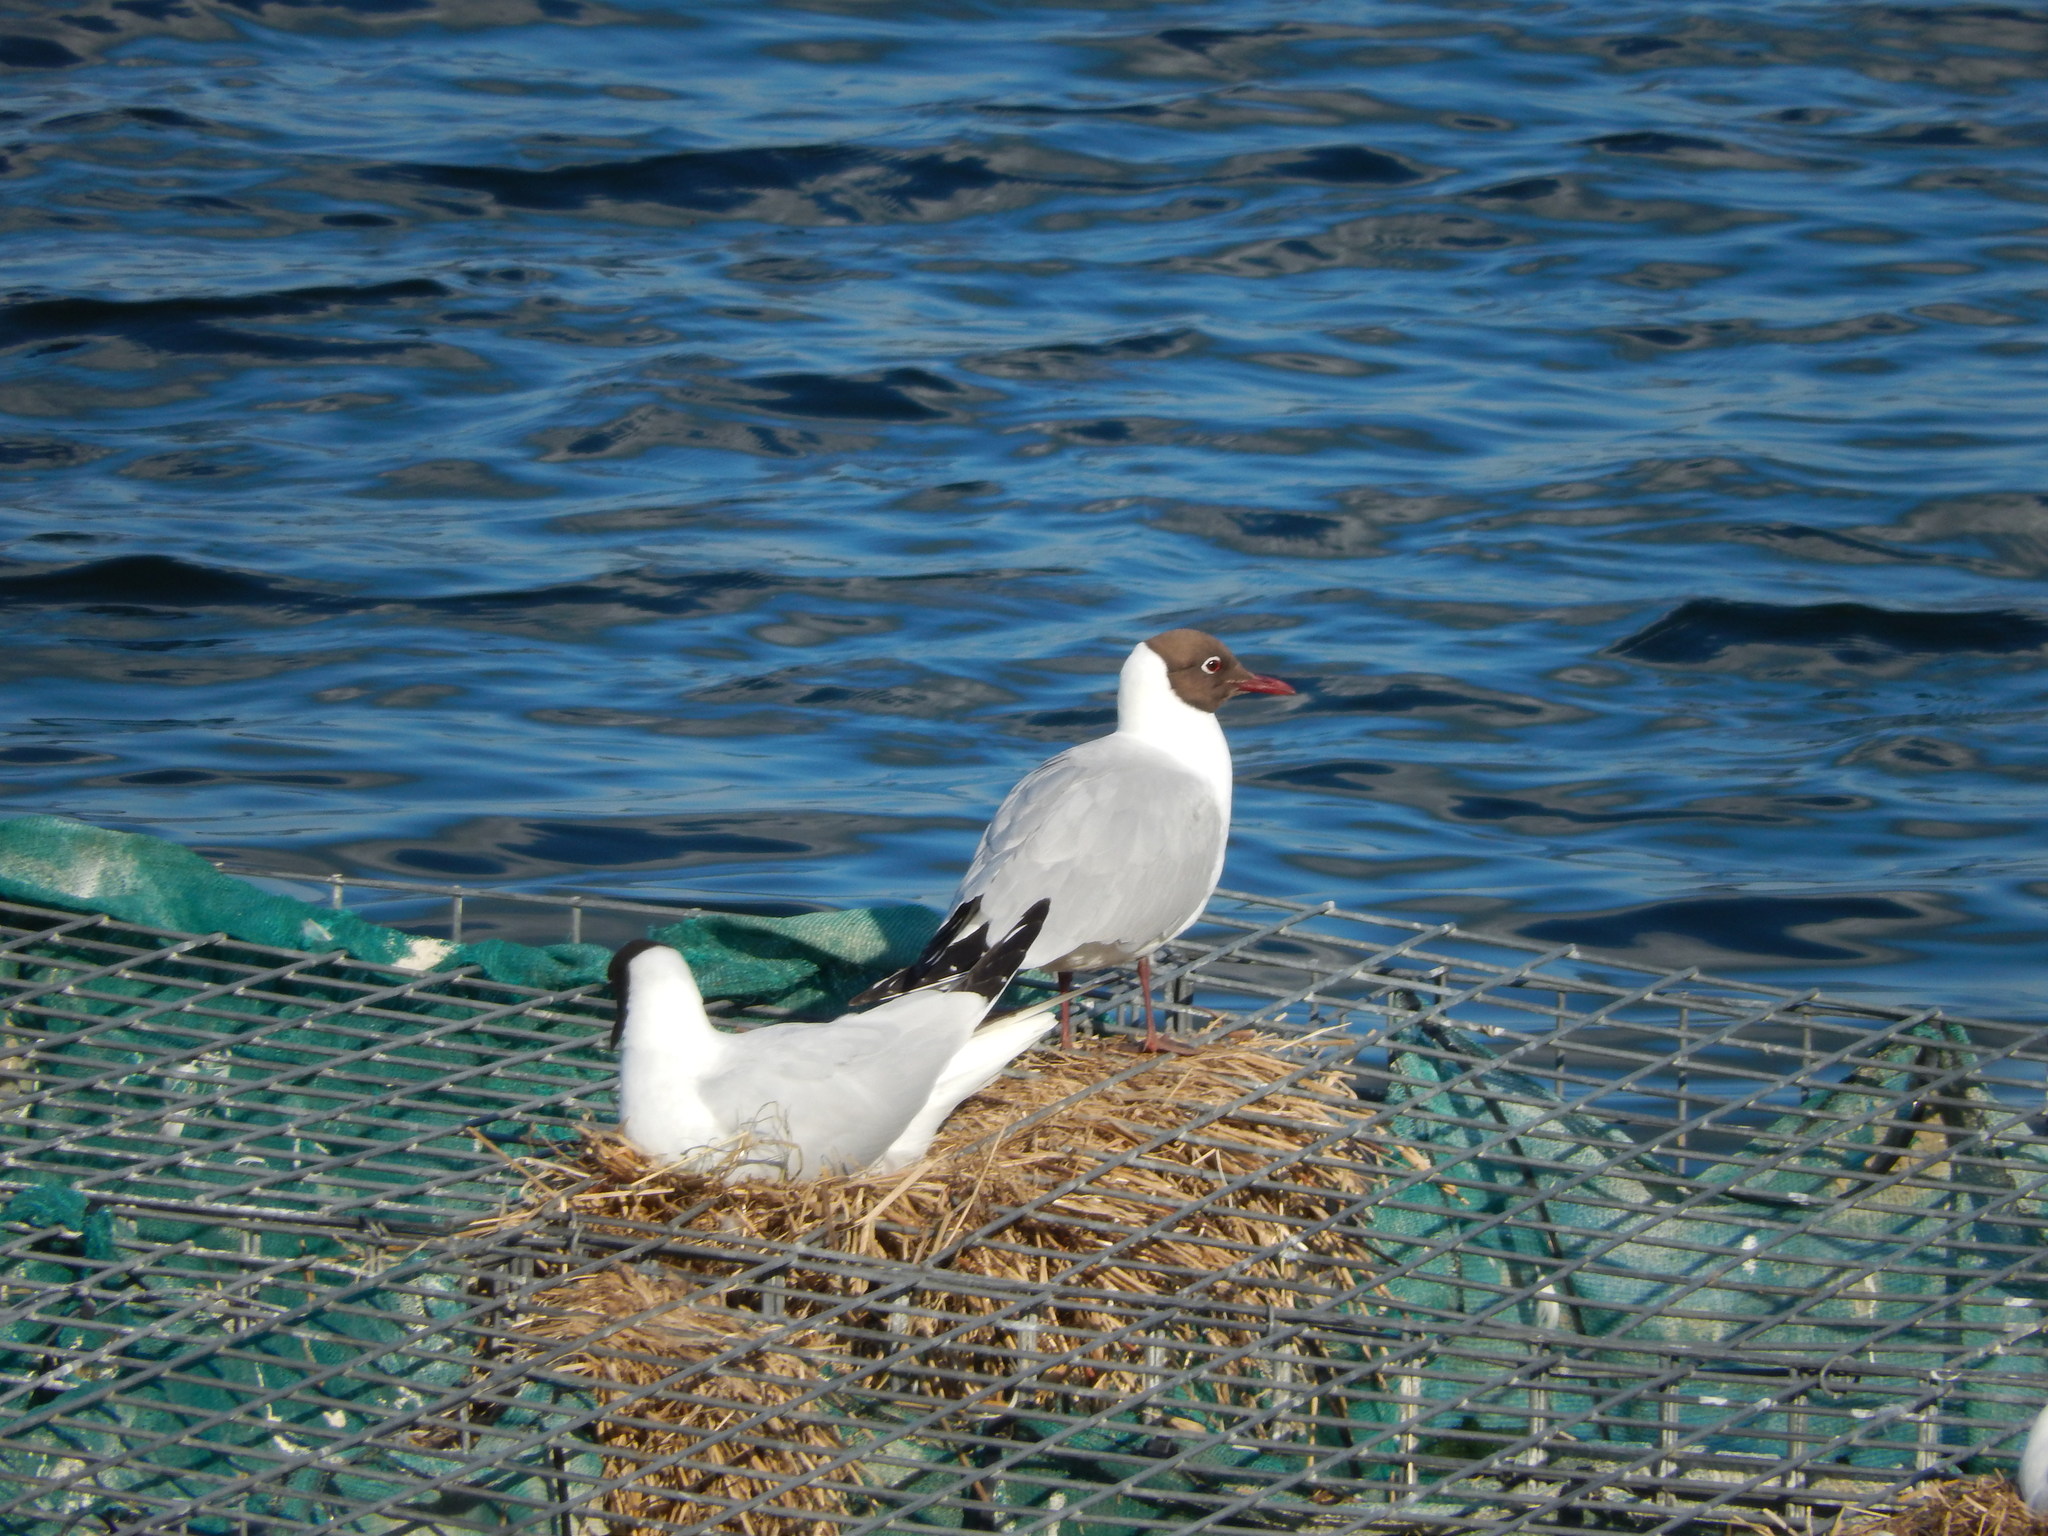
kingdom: Animalia
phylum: Chordata
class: Aves
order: Charadriiformes
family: Laridae
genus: Chroicocephalus
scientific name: Chroicocephalus ridibundus
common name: Black-headed gull
